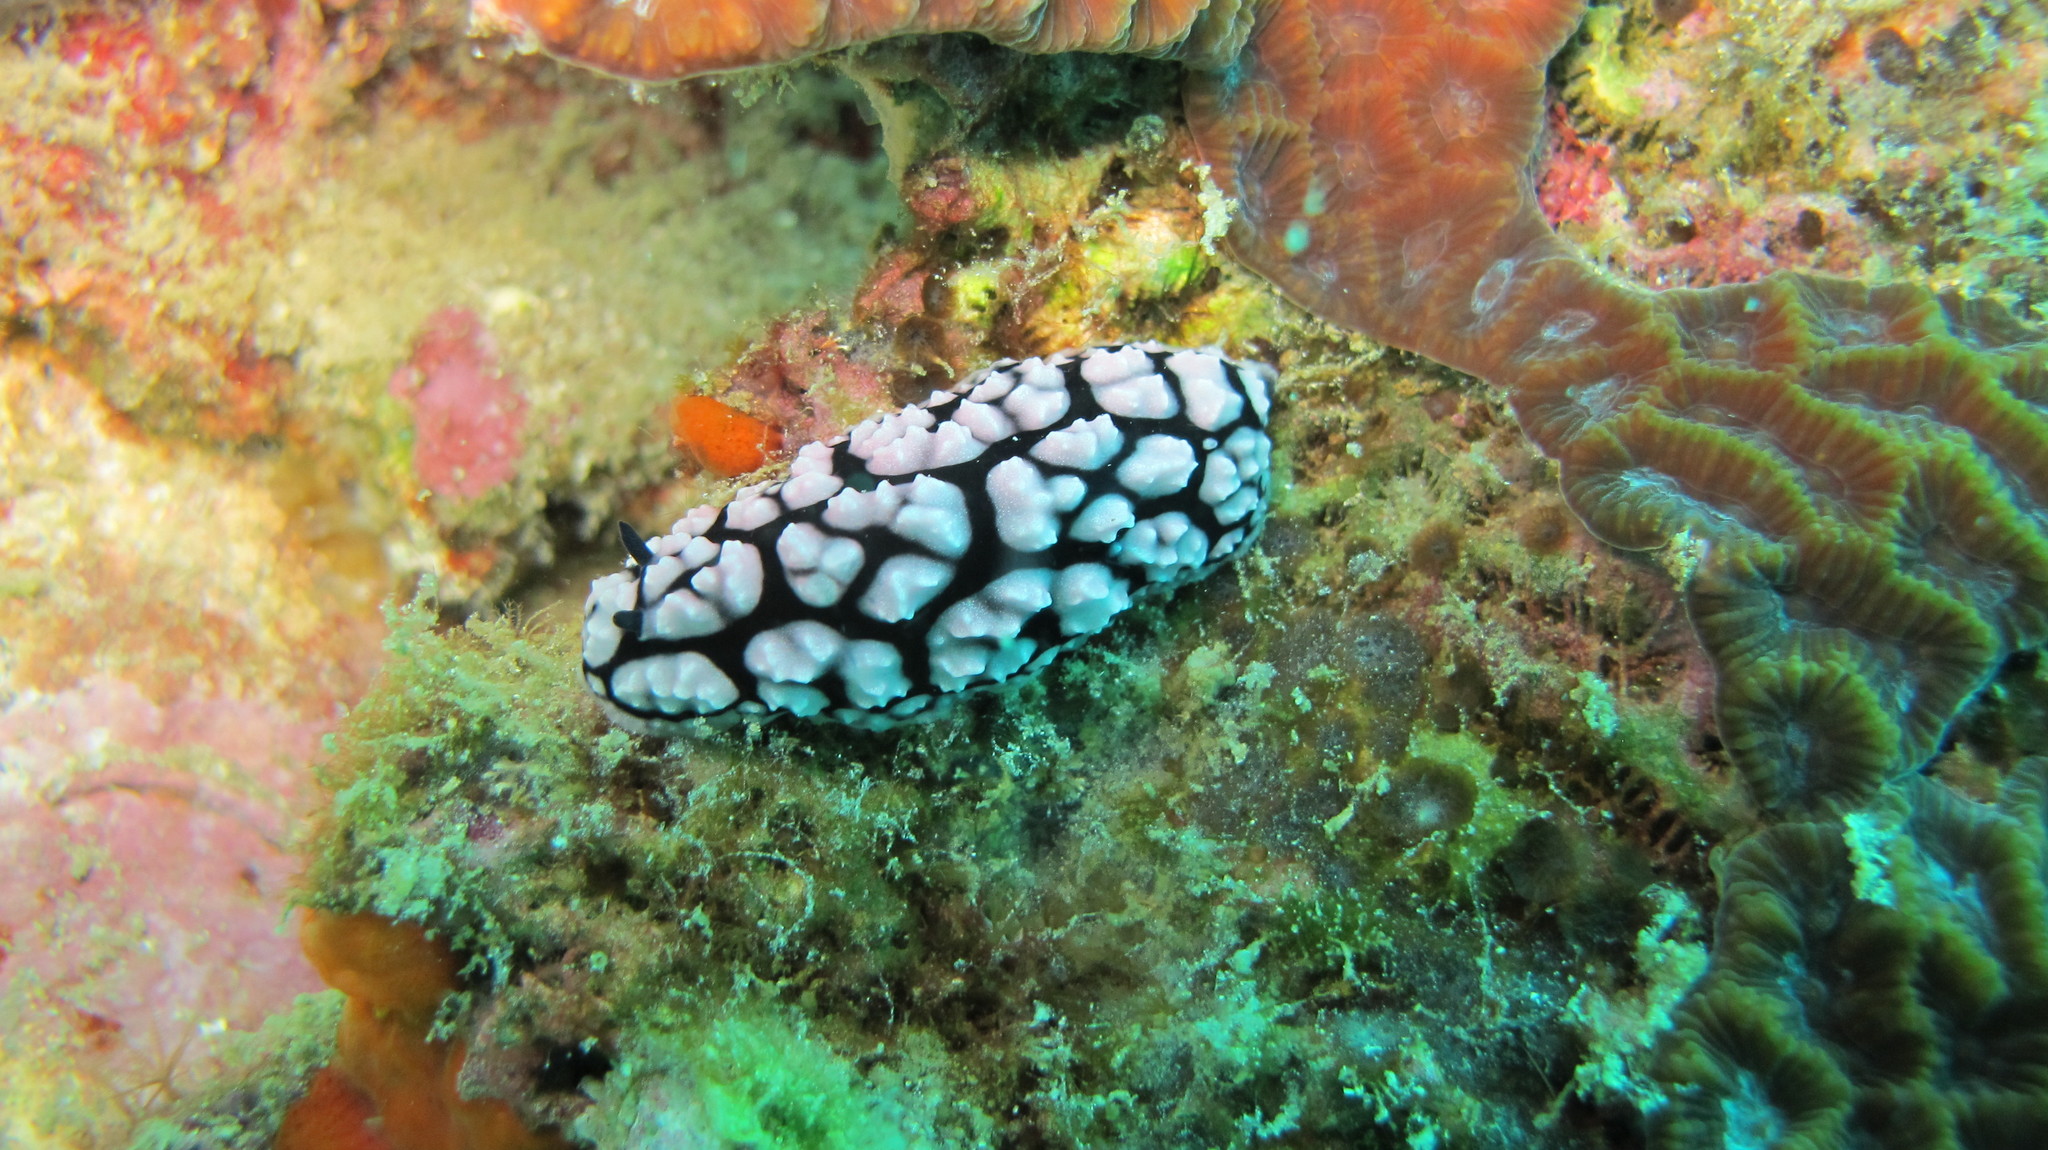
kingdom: Animalia
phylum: Mollusca
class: Gastropoda
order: Nudibranchia
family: Phyllidiidae
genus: Phyllidiella
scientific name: Phyllidiella pustulosa
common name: Pustular phyllidia
